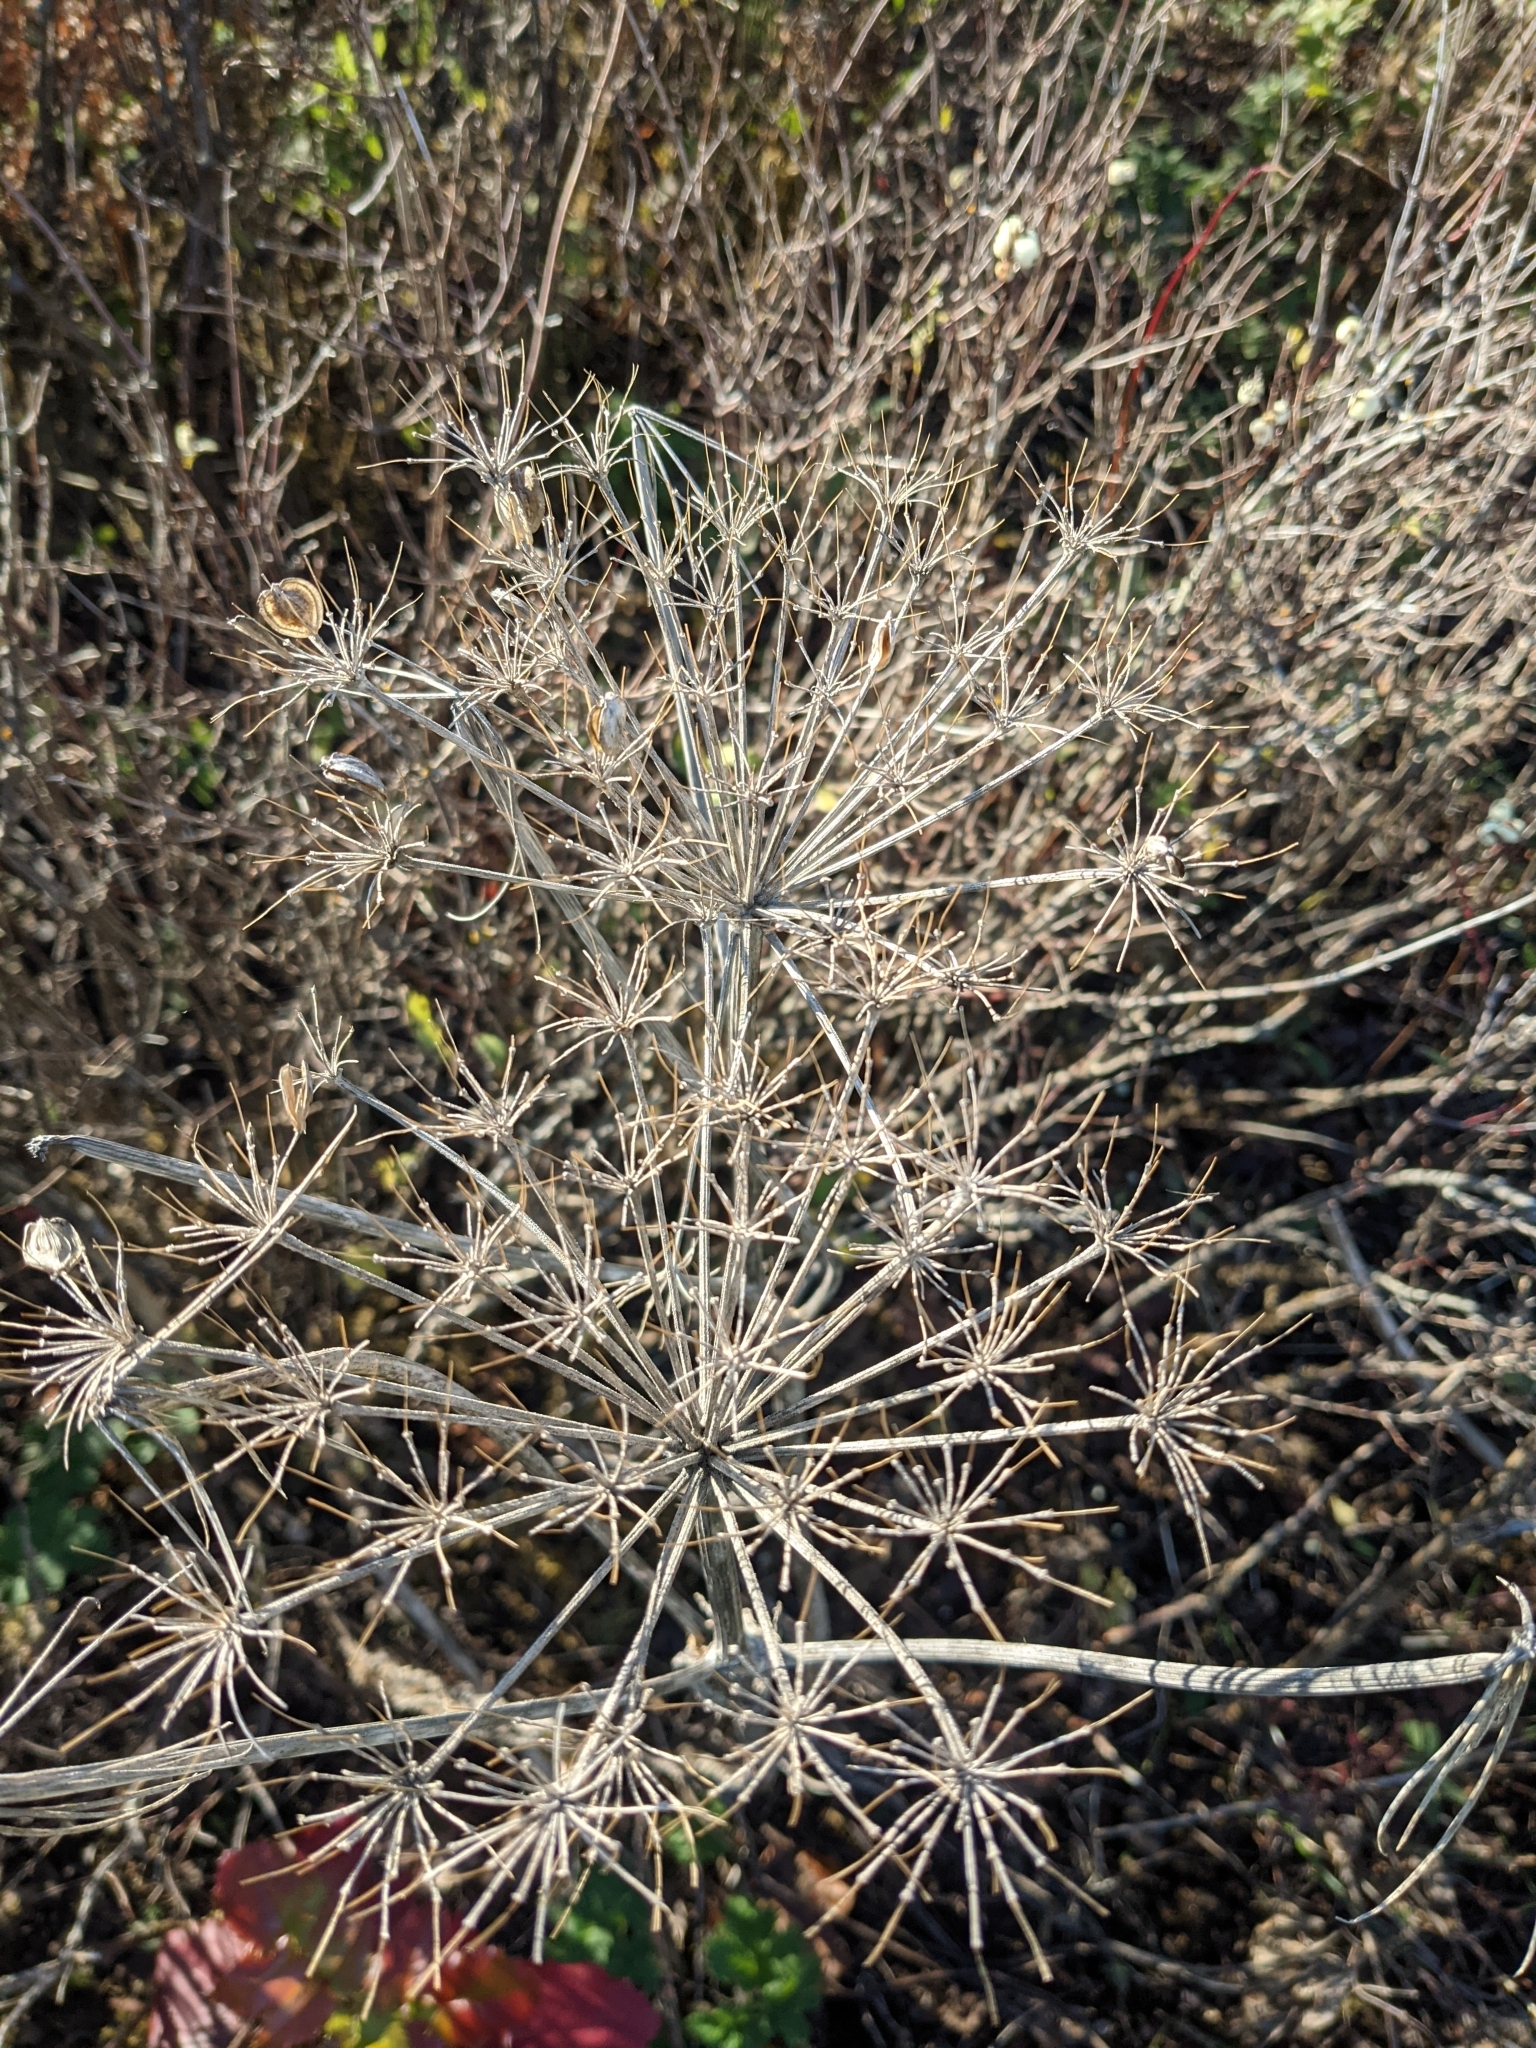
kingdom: Plantae
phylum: Tracheophyta
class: Magnoliopsida
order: Apiales
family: Apiaceae
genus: Heracleum
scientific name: Heracleum maximum
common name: American cow parsnip
